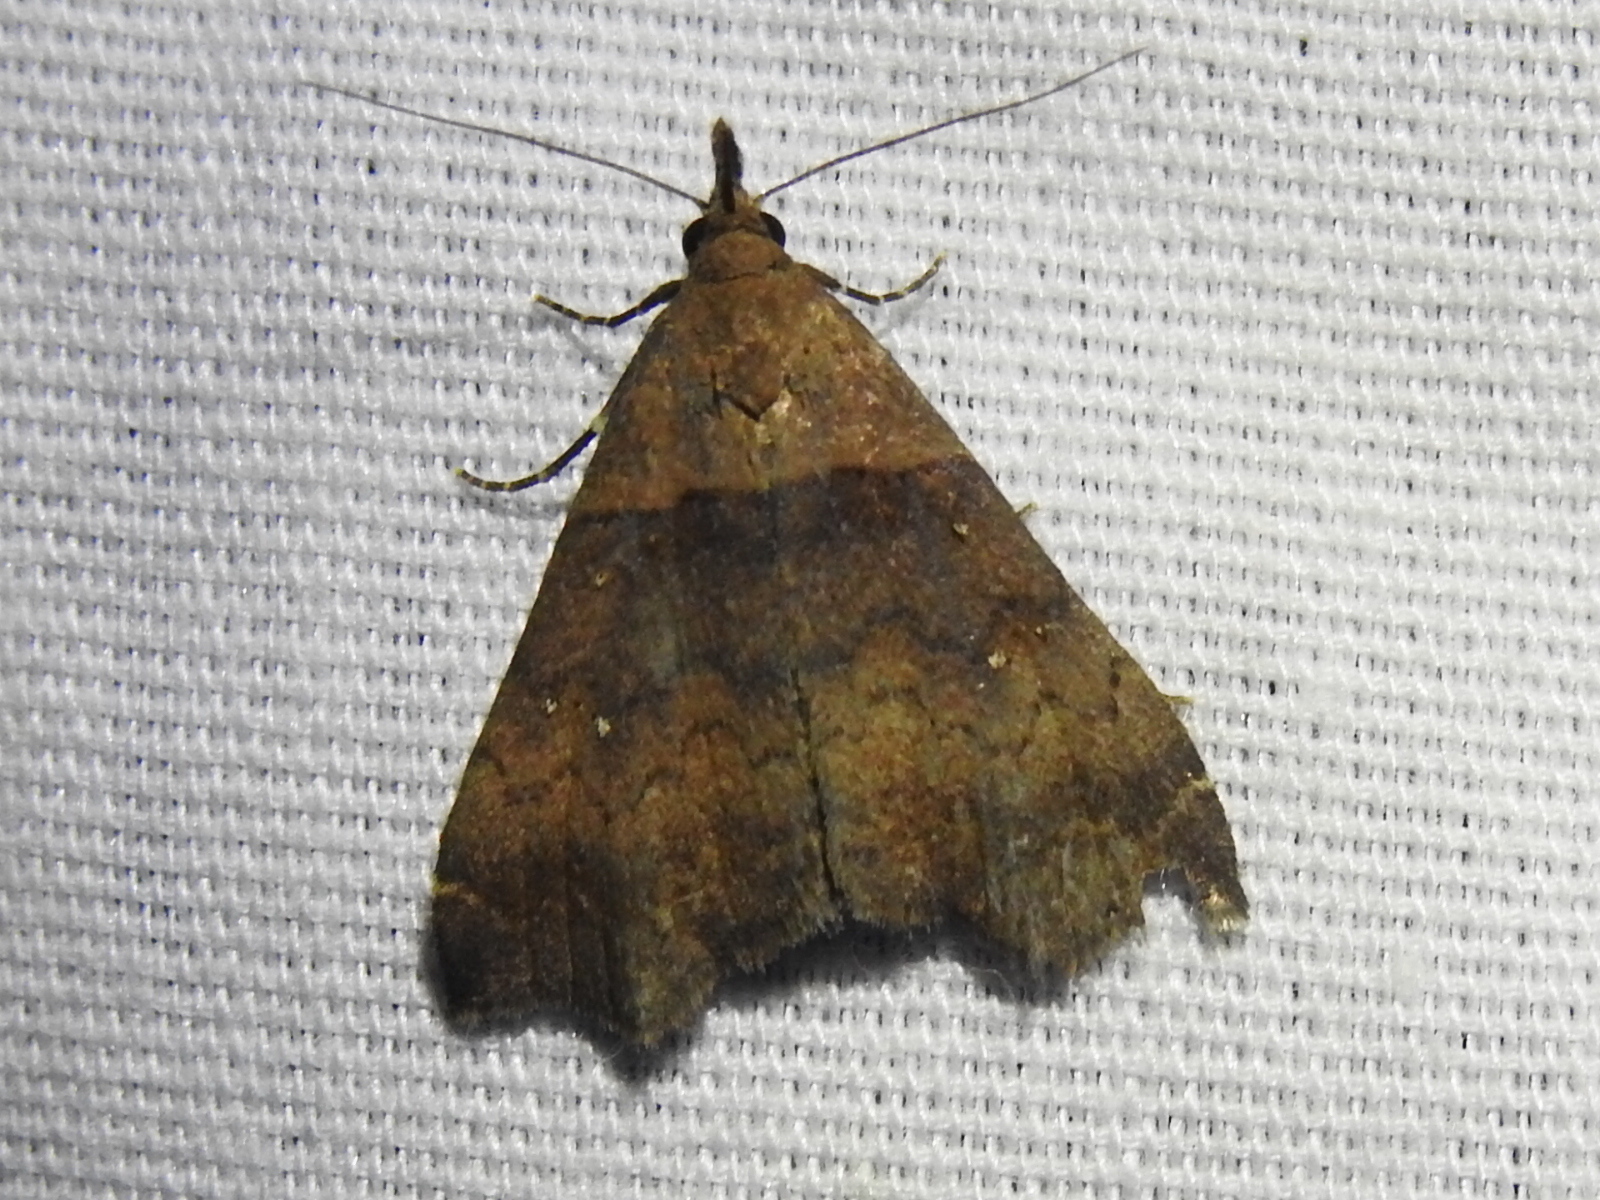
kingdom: Animalia
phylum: Arthropoda
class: Insecta
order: Lepidoptera
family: Erebidae
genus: Lascoria
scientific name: Lascoria ambigualis
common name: Ambiguous moth
